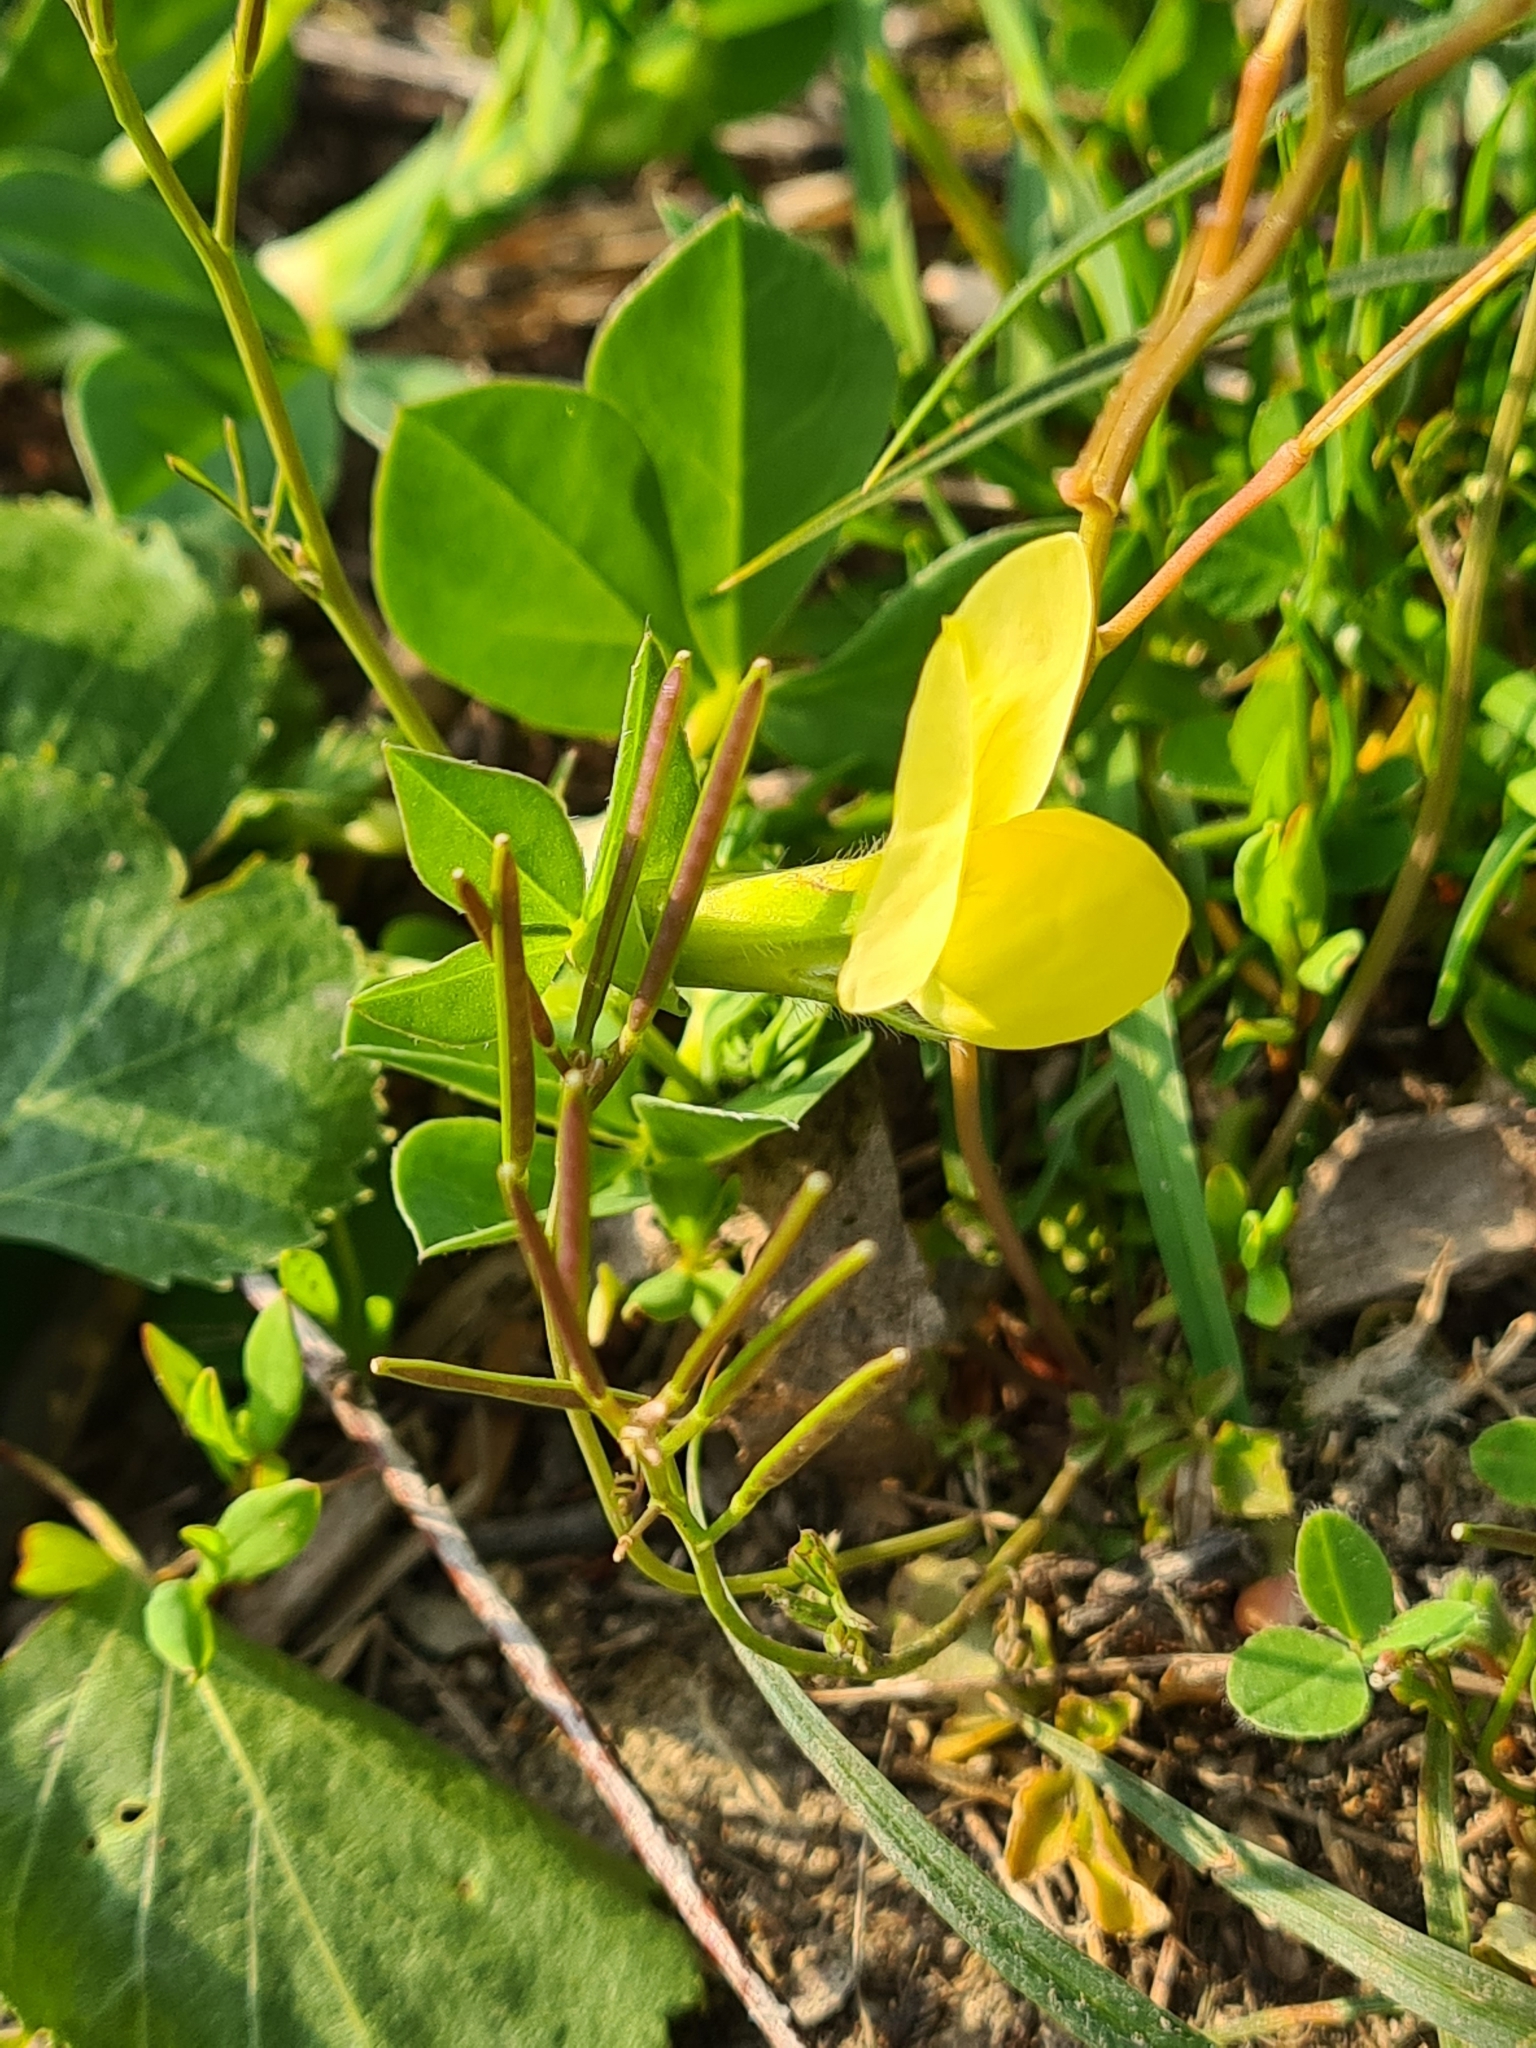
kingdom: Plantae
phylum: Tracheophyta
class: Magnoliopsida
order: Fabales
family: Fabaceae
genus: Lotus
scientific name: Lotus maritimus
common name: Dragon's-teeth
